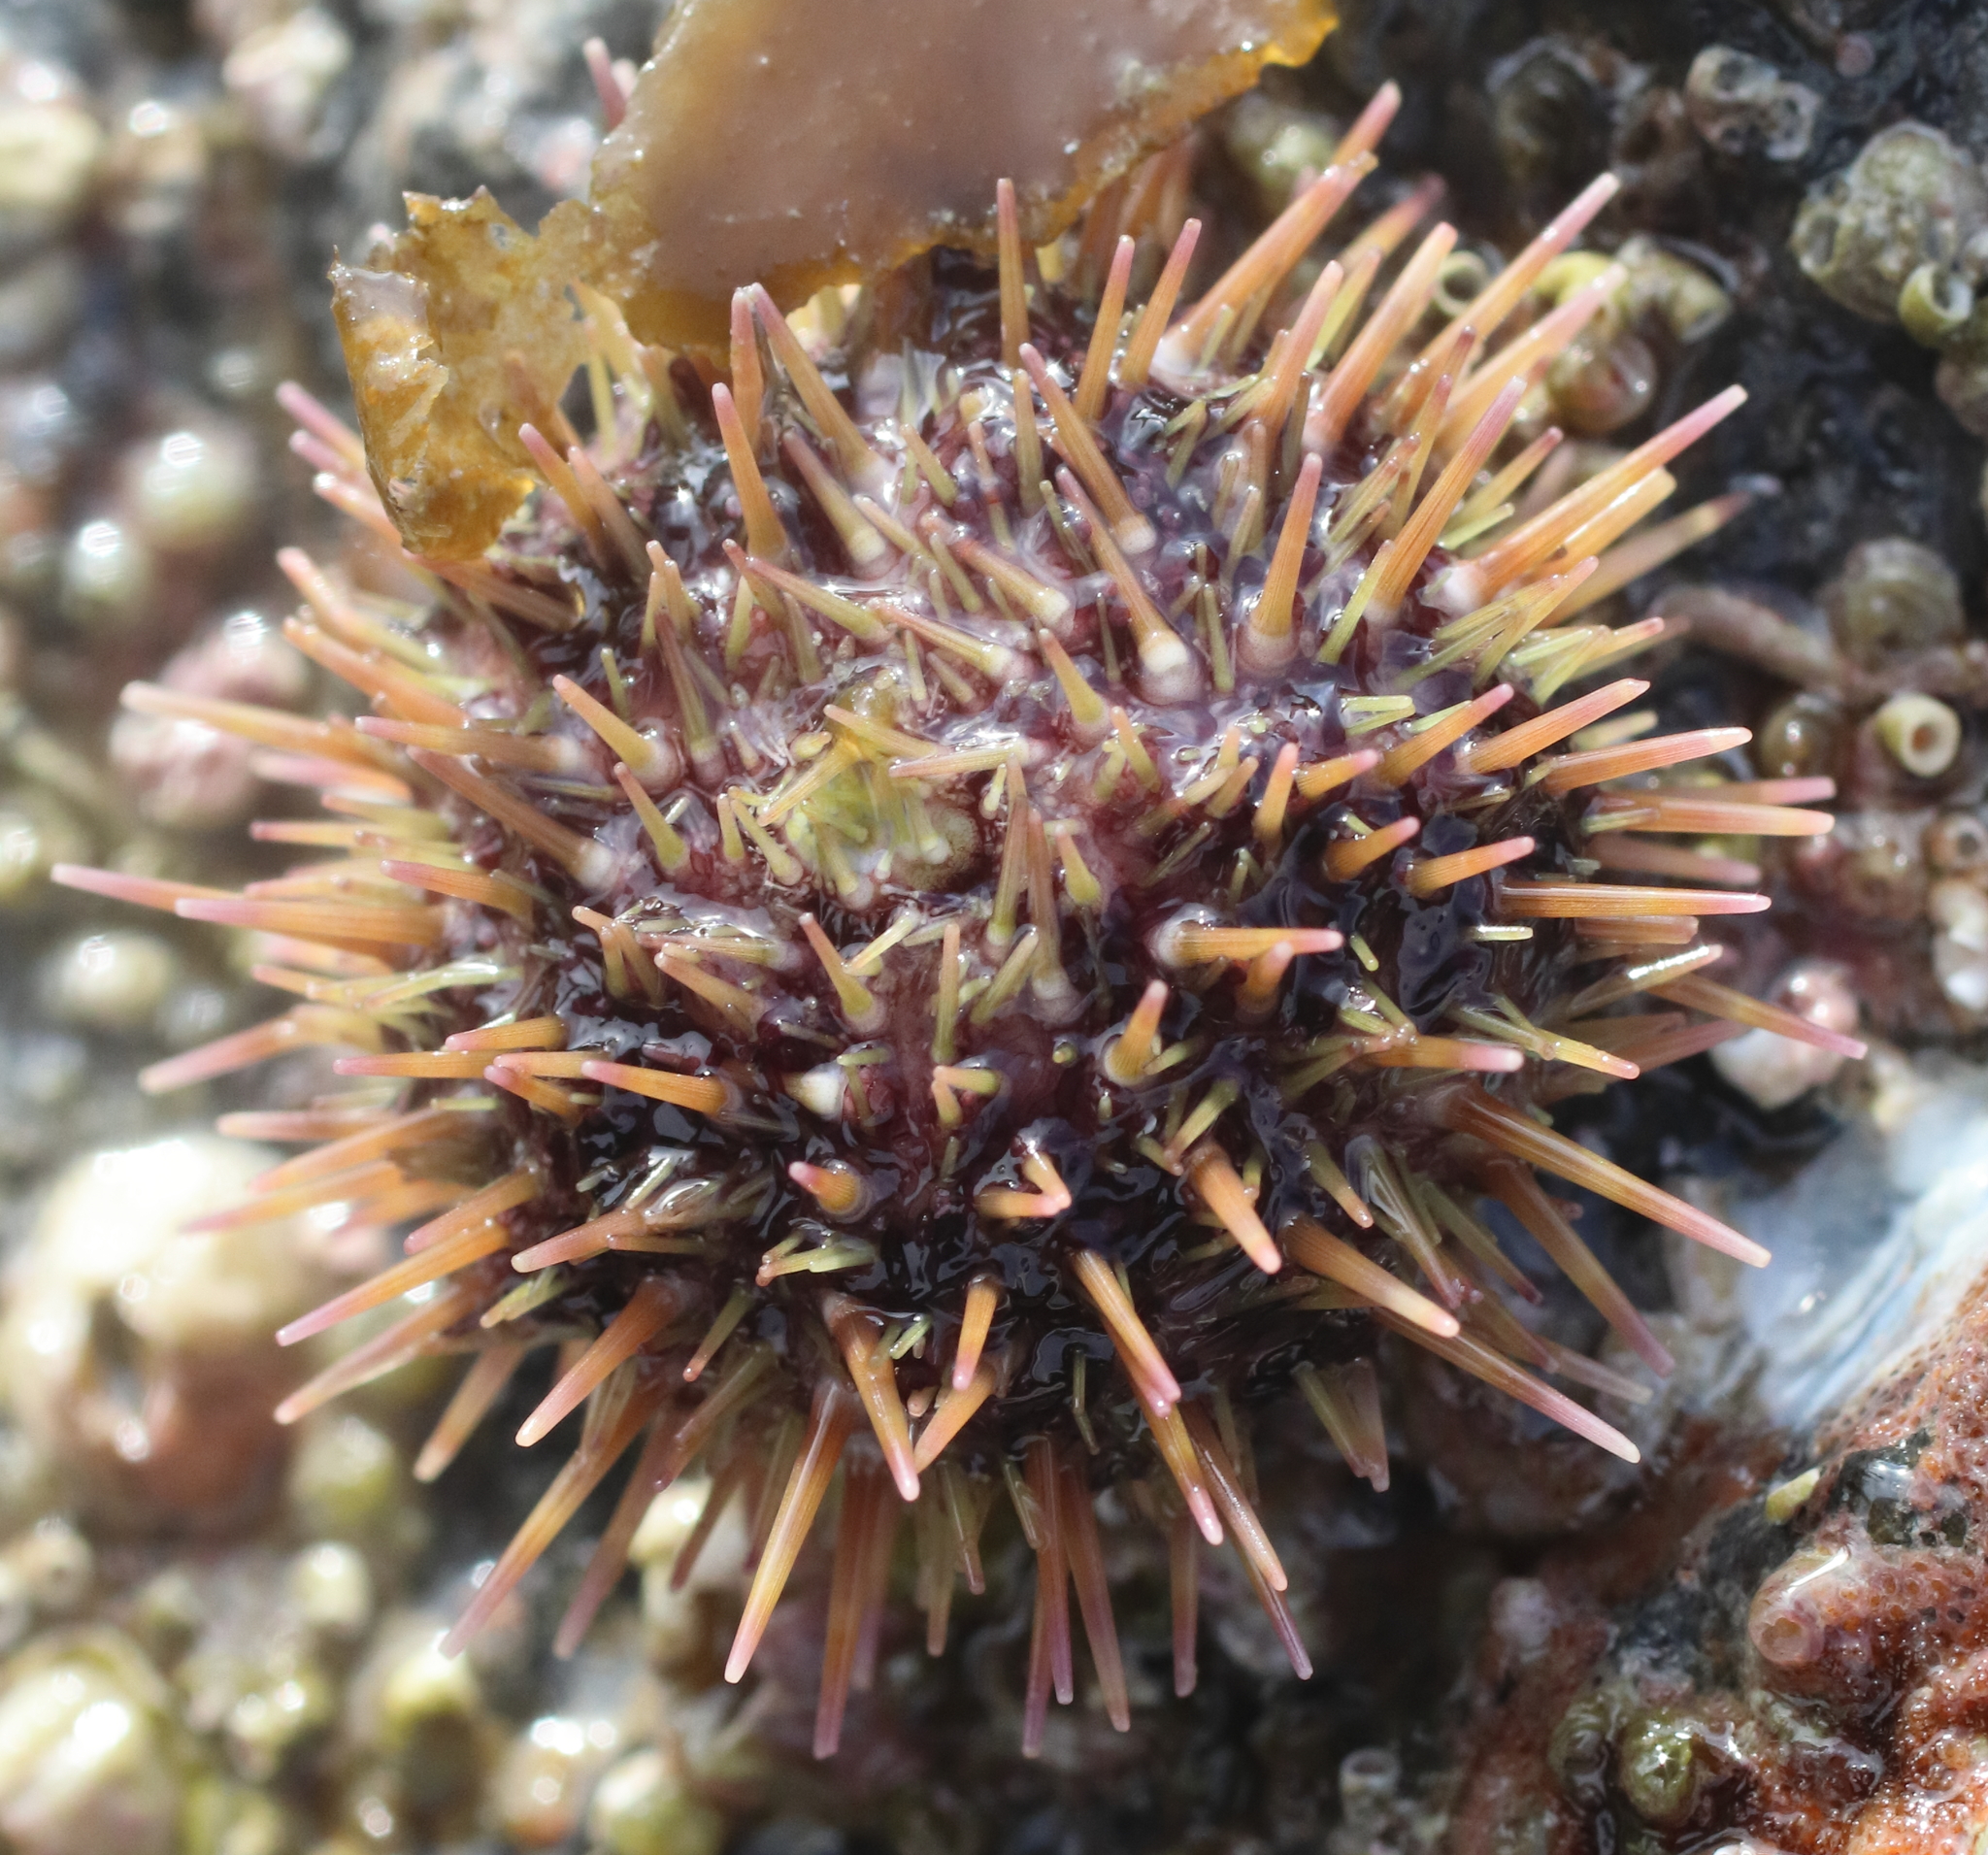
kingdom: Animalia
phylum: Echinodermata
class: Echinoidea
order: Camarodonta
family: Strongylocentrotidae
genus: Strongylocentrotus
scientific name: Strongylocentrotus droebachiensis
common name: Northern sea urchin
